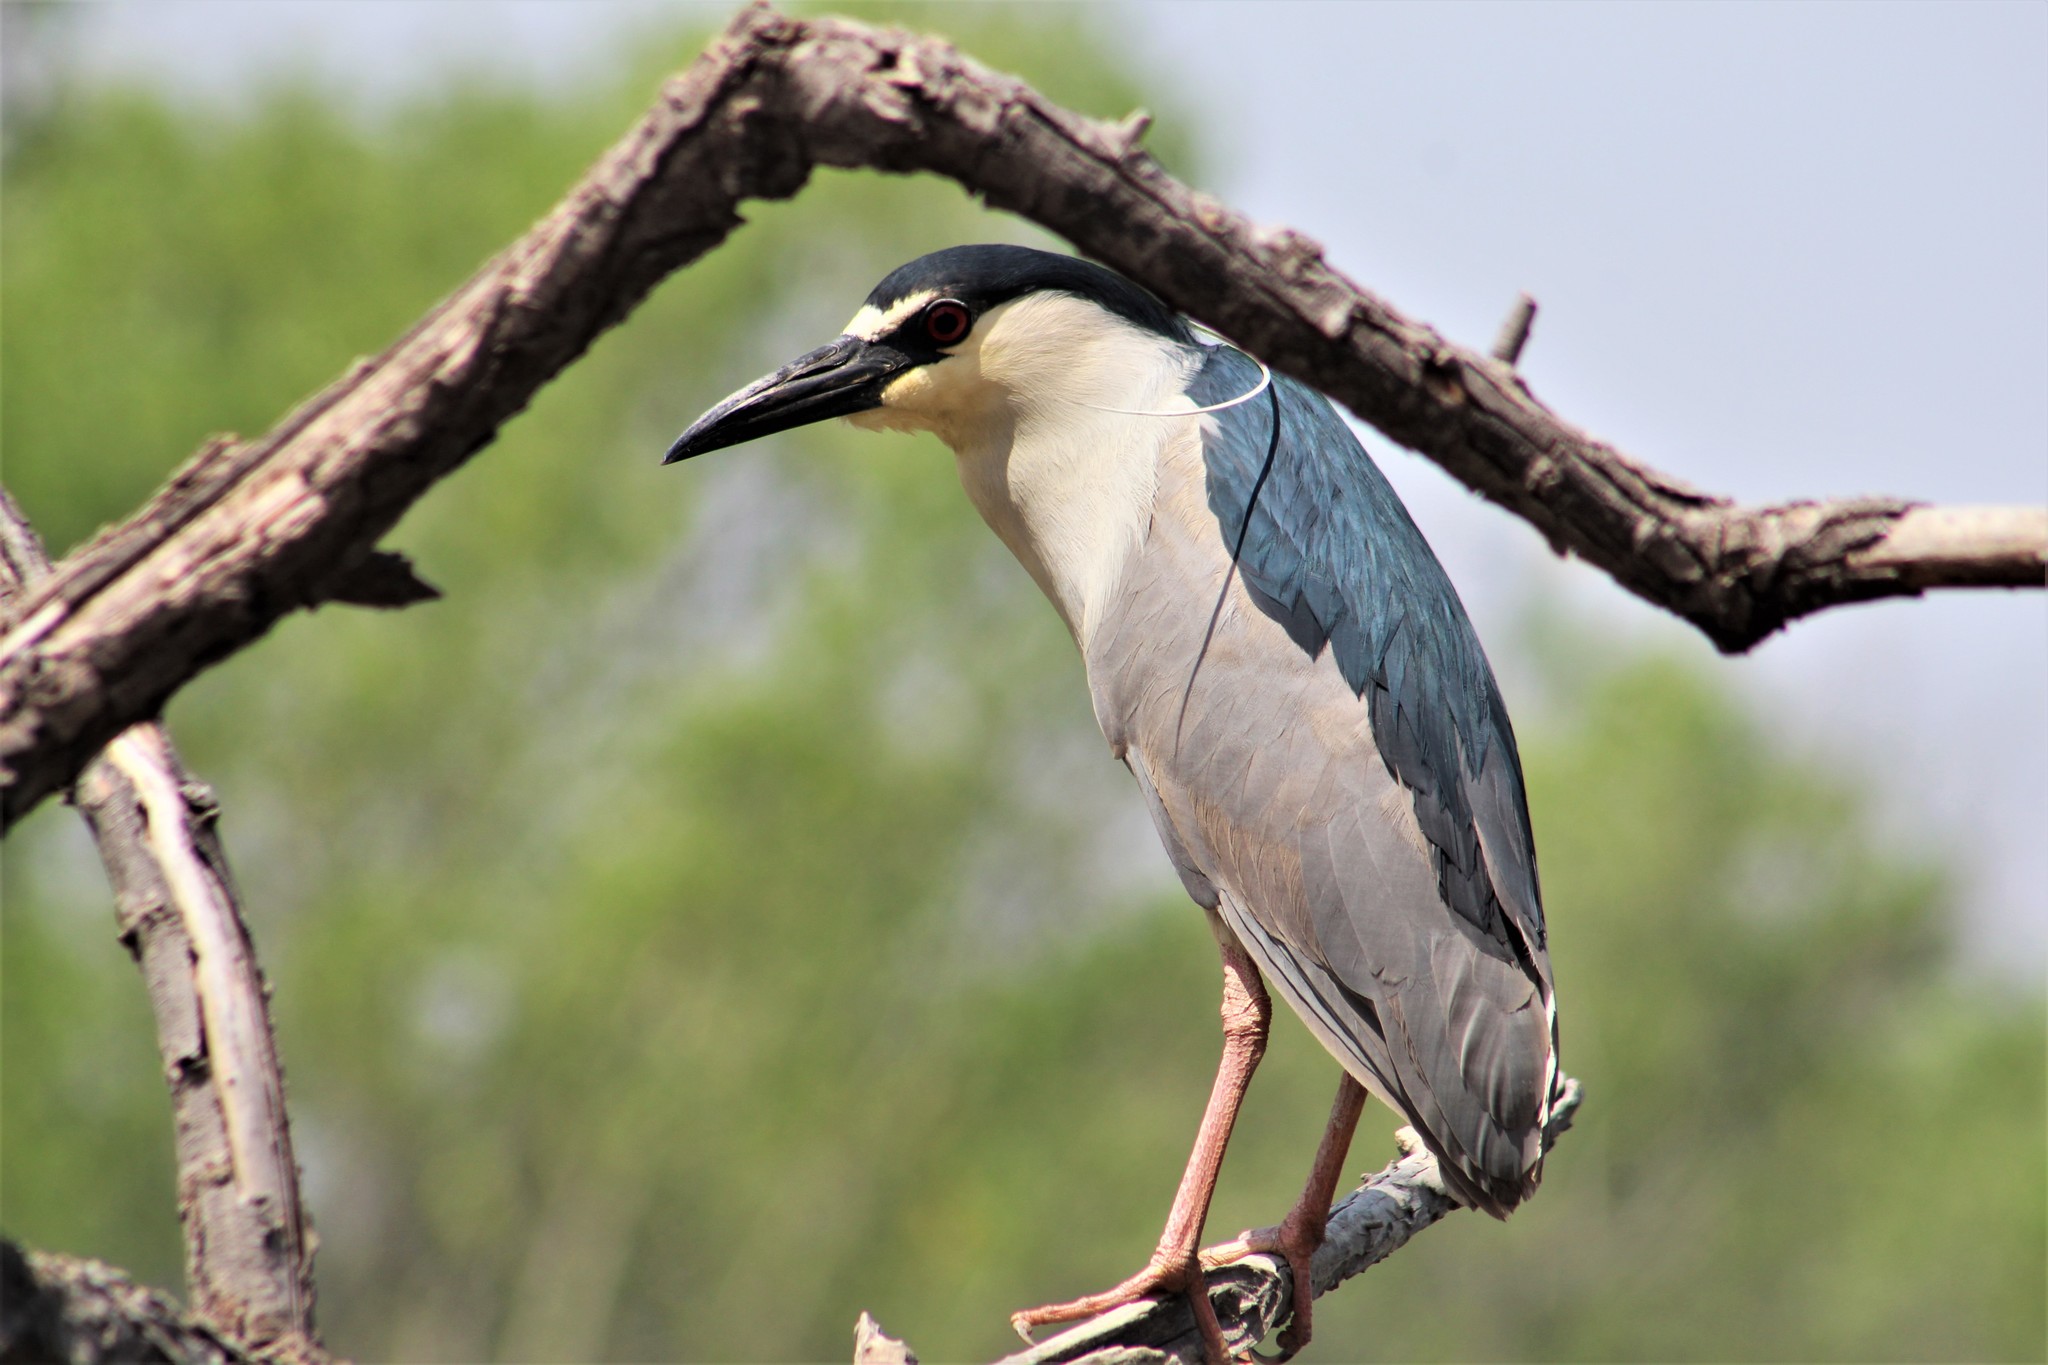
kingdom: Animalia
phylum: Chordata
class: Aves
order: Pelecaniformes
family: Ardeidae
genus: Nycticorax
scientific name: Nycticorax nycticorax
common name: Black-crowned night heron
